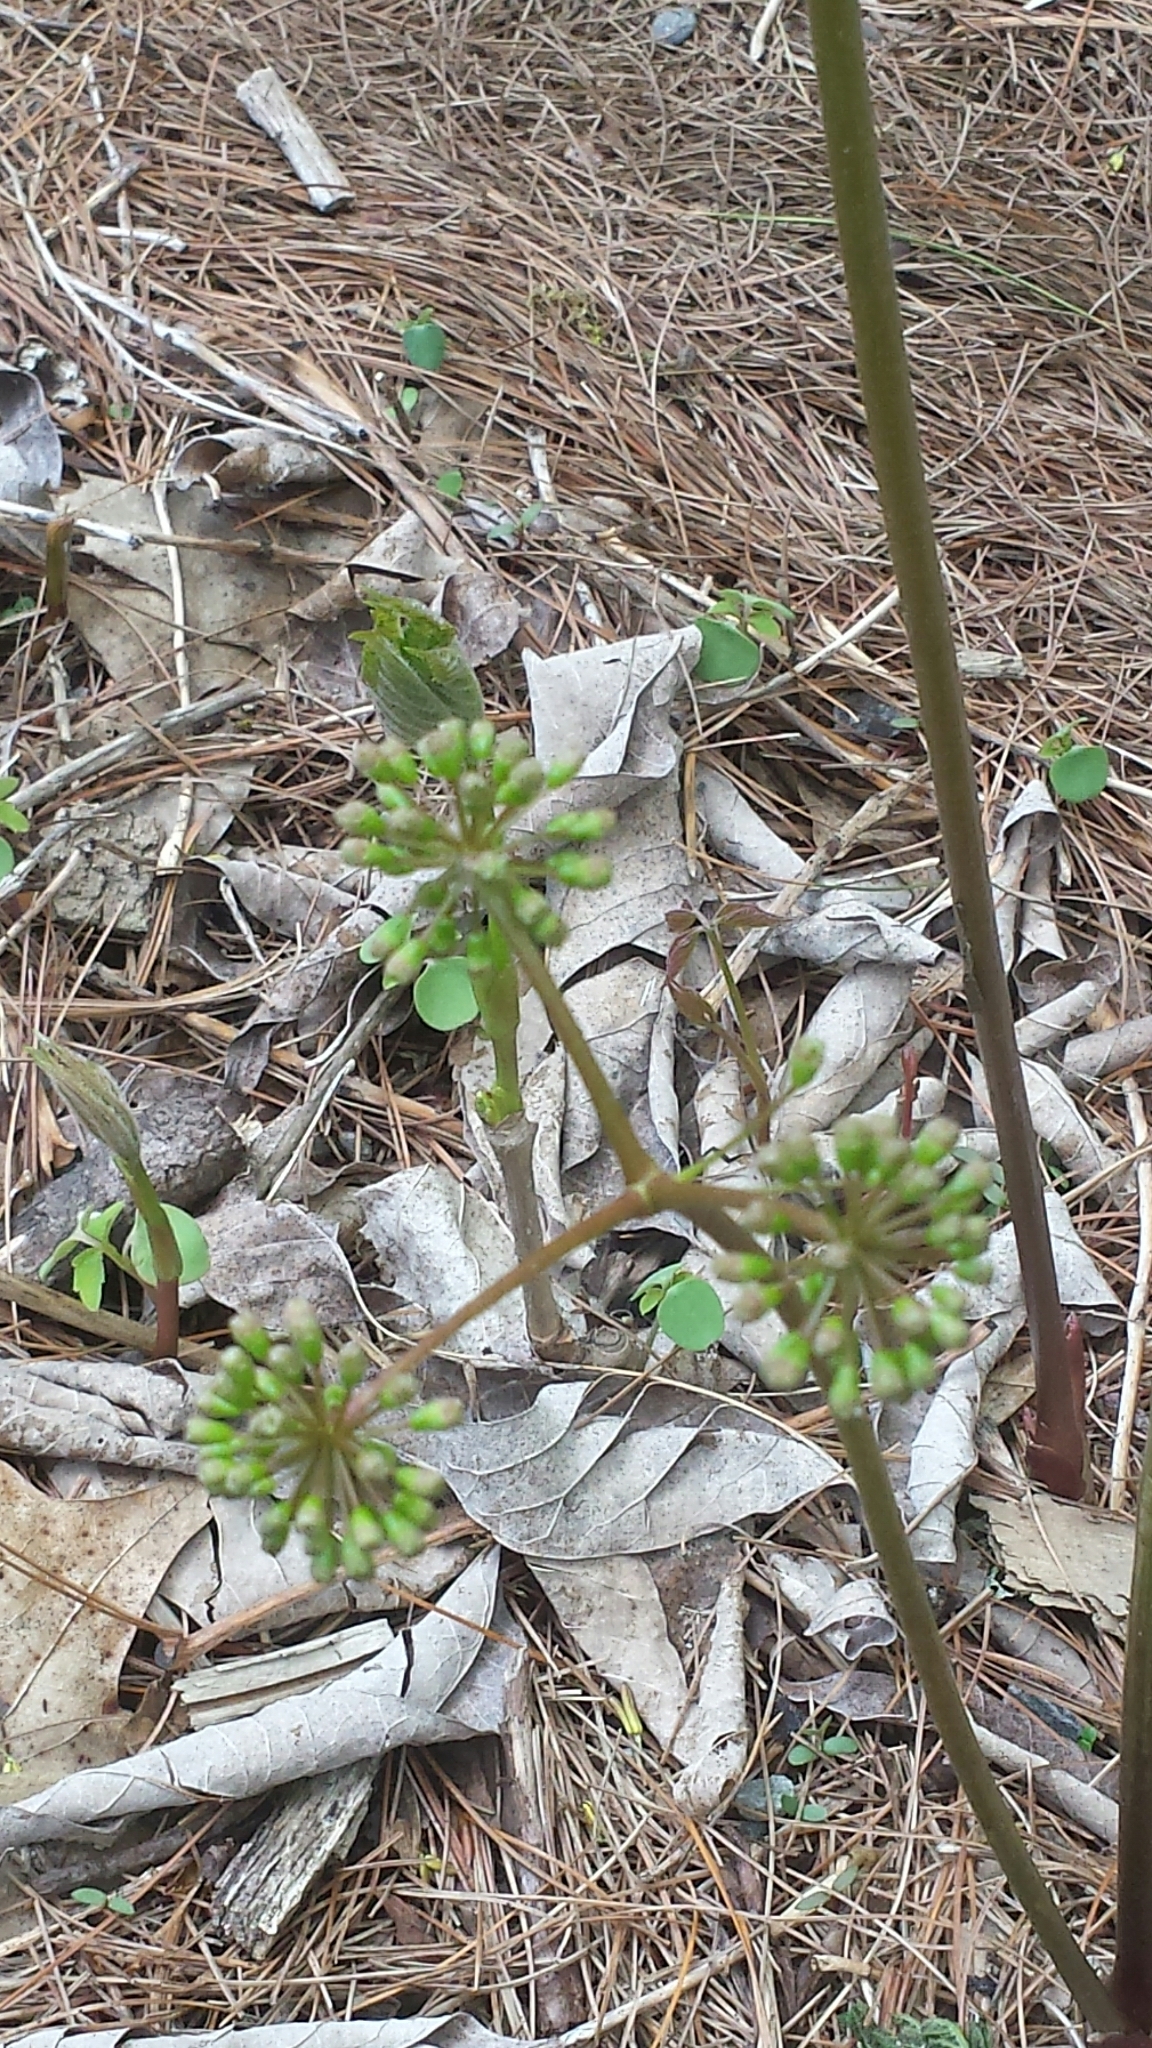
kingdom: Plantae
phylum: Tracheophyta
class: Magnoliopsida
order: Apiales
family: Araliaceae
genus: Aralia
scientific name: Aralia nudicaulis
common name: Wild sarsaparilla
